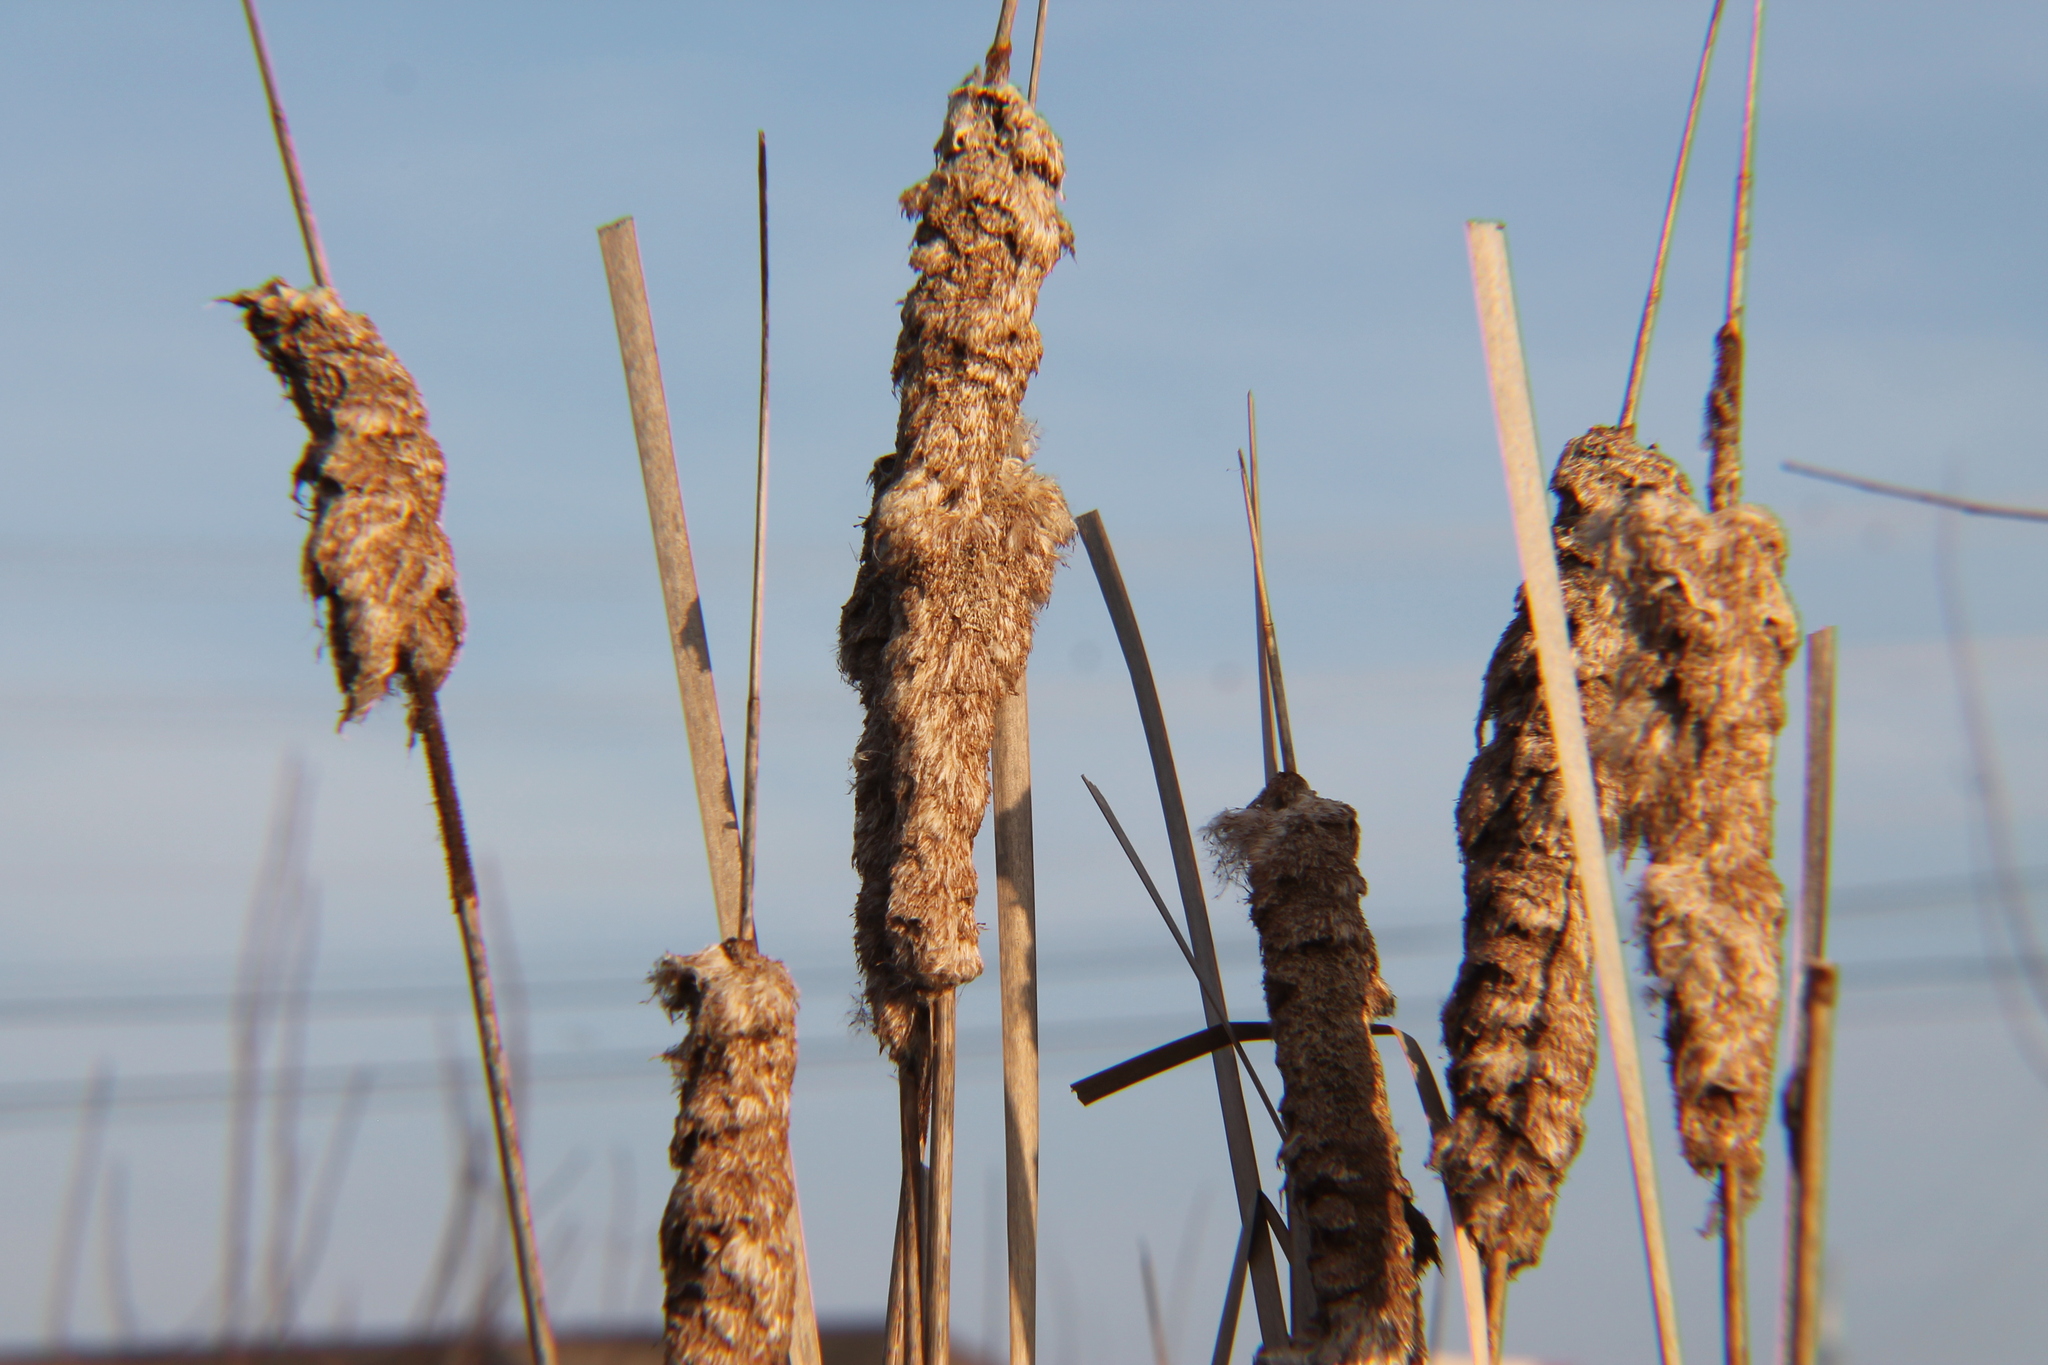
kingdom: Plantae
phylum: Tracheophyta
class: Liliopsida
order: Poales
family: Typhaceae
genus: Typha
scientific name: Typha latifolia
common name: Broadleaf cattail
